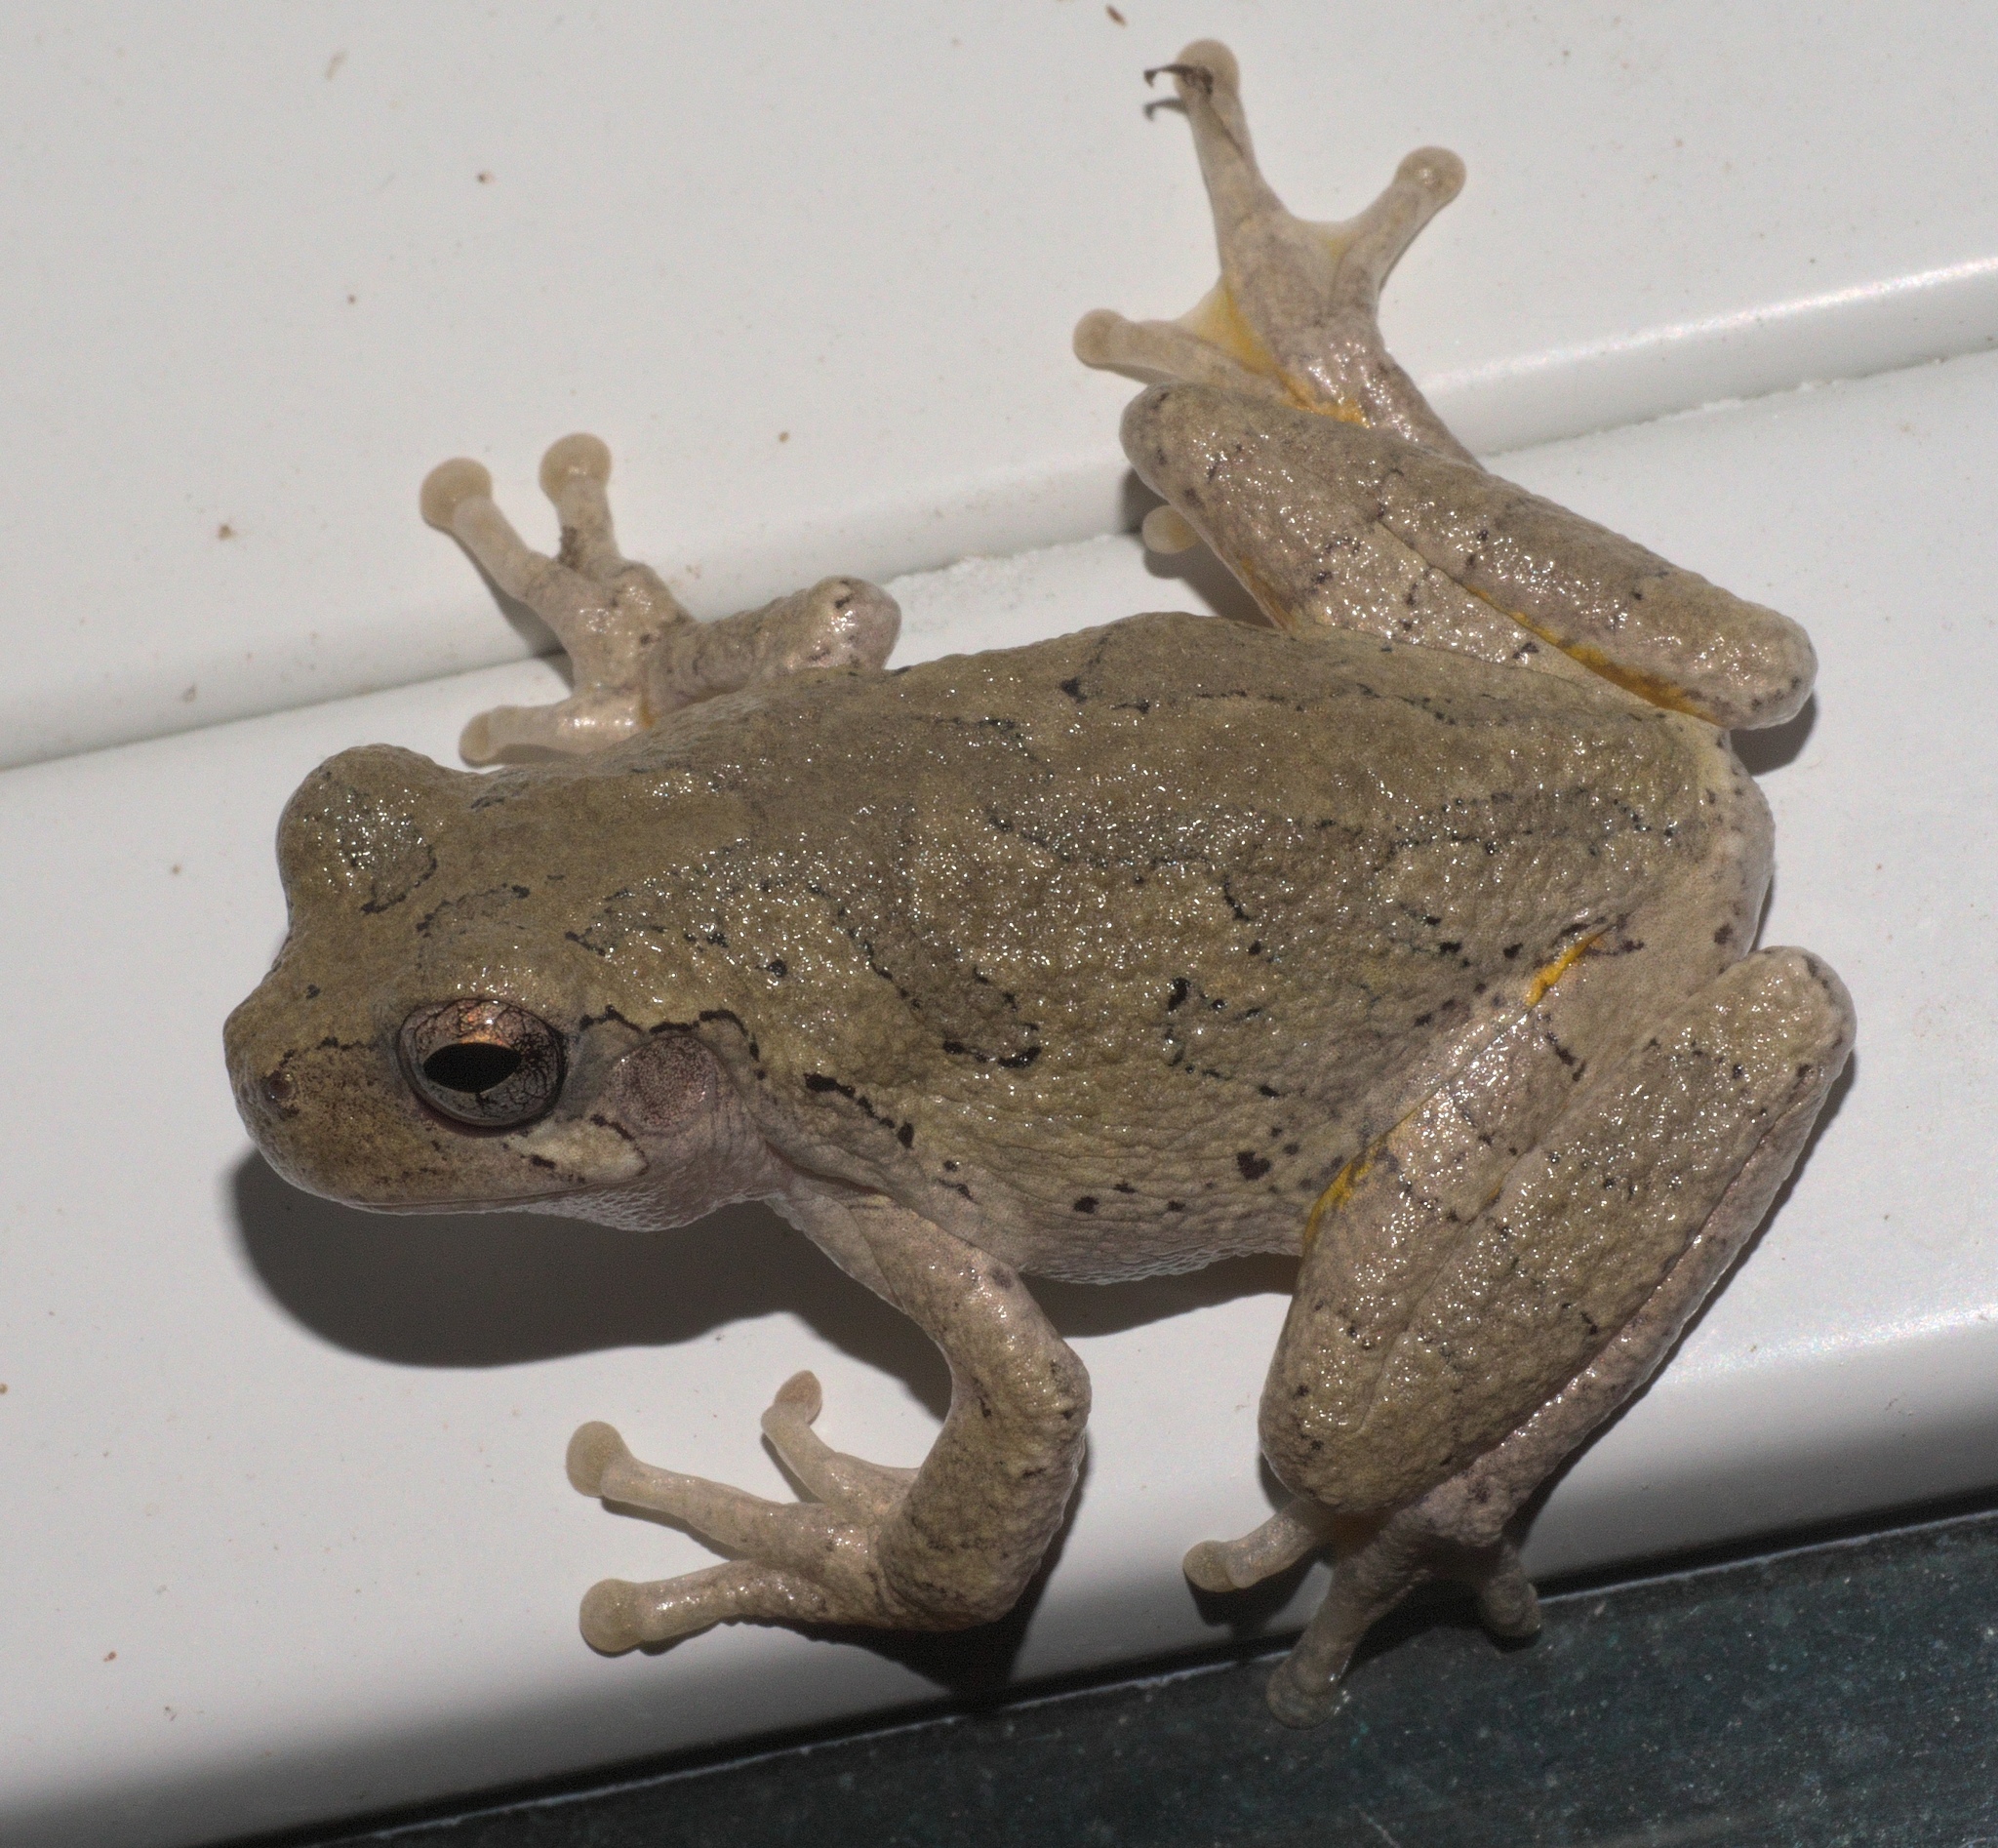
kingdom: Animalia
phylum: Chordata
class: Amphibia
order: Anura
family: Hylidae
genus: Hyla
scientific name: Hyla
